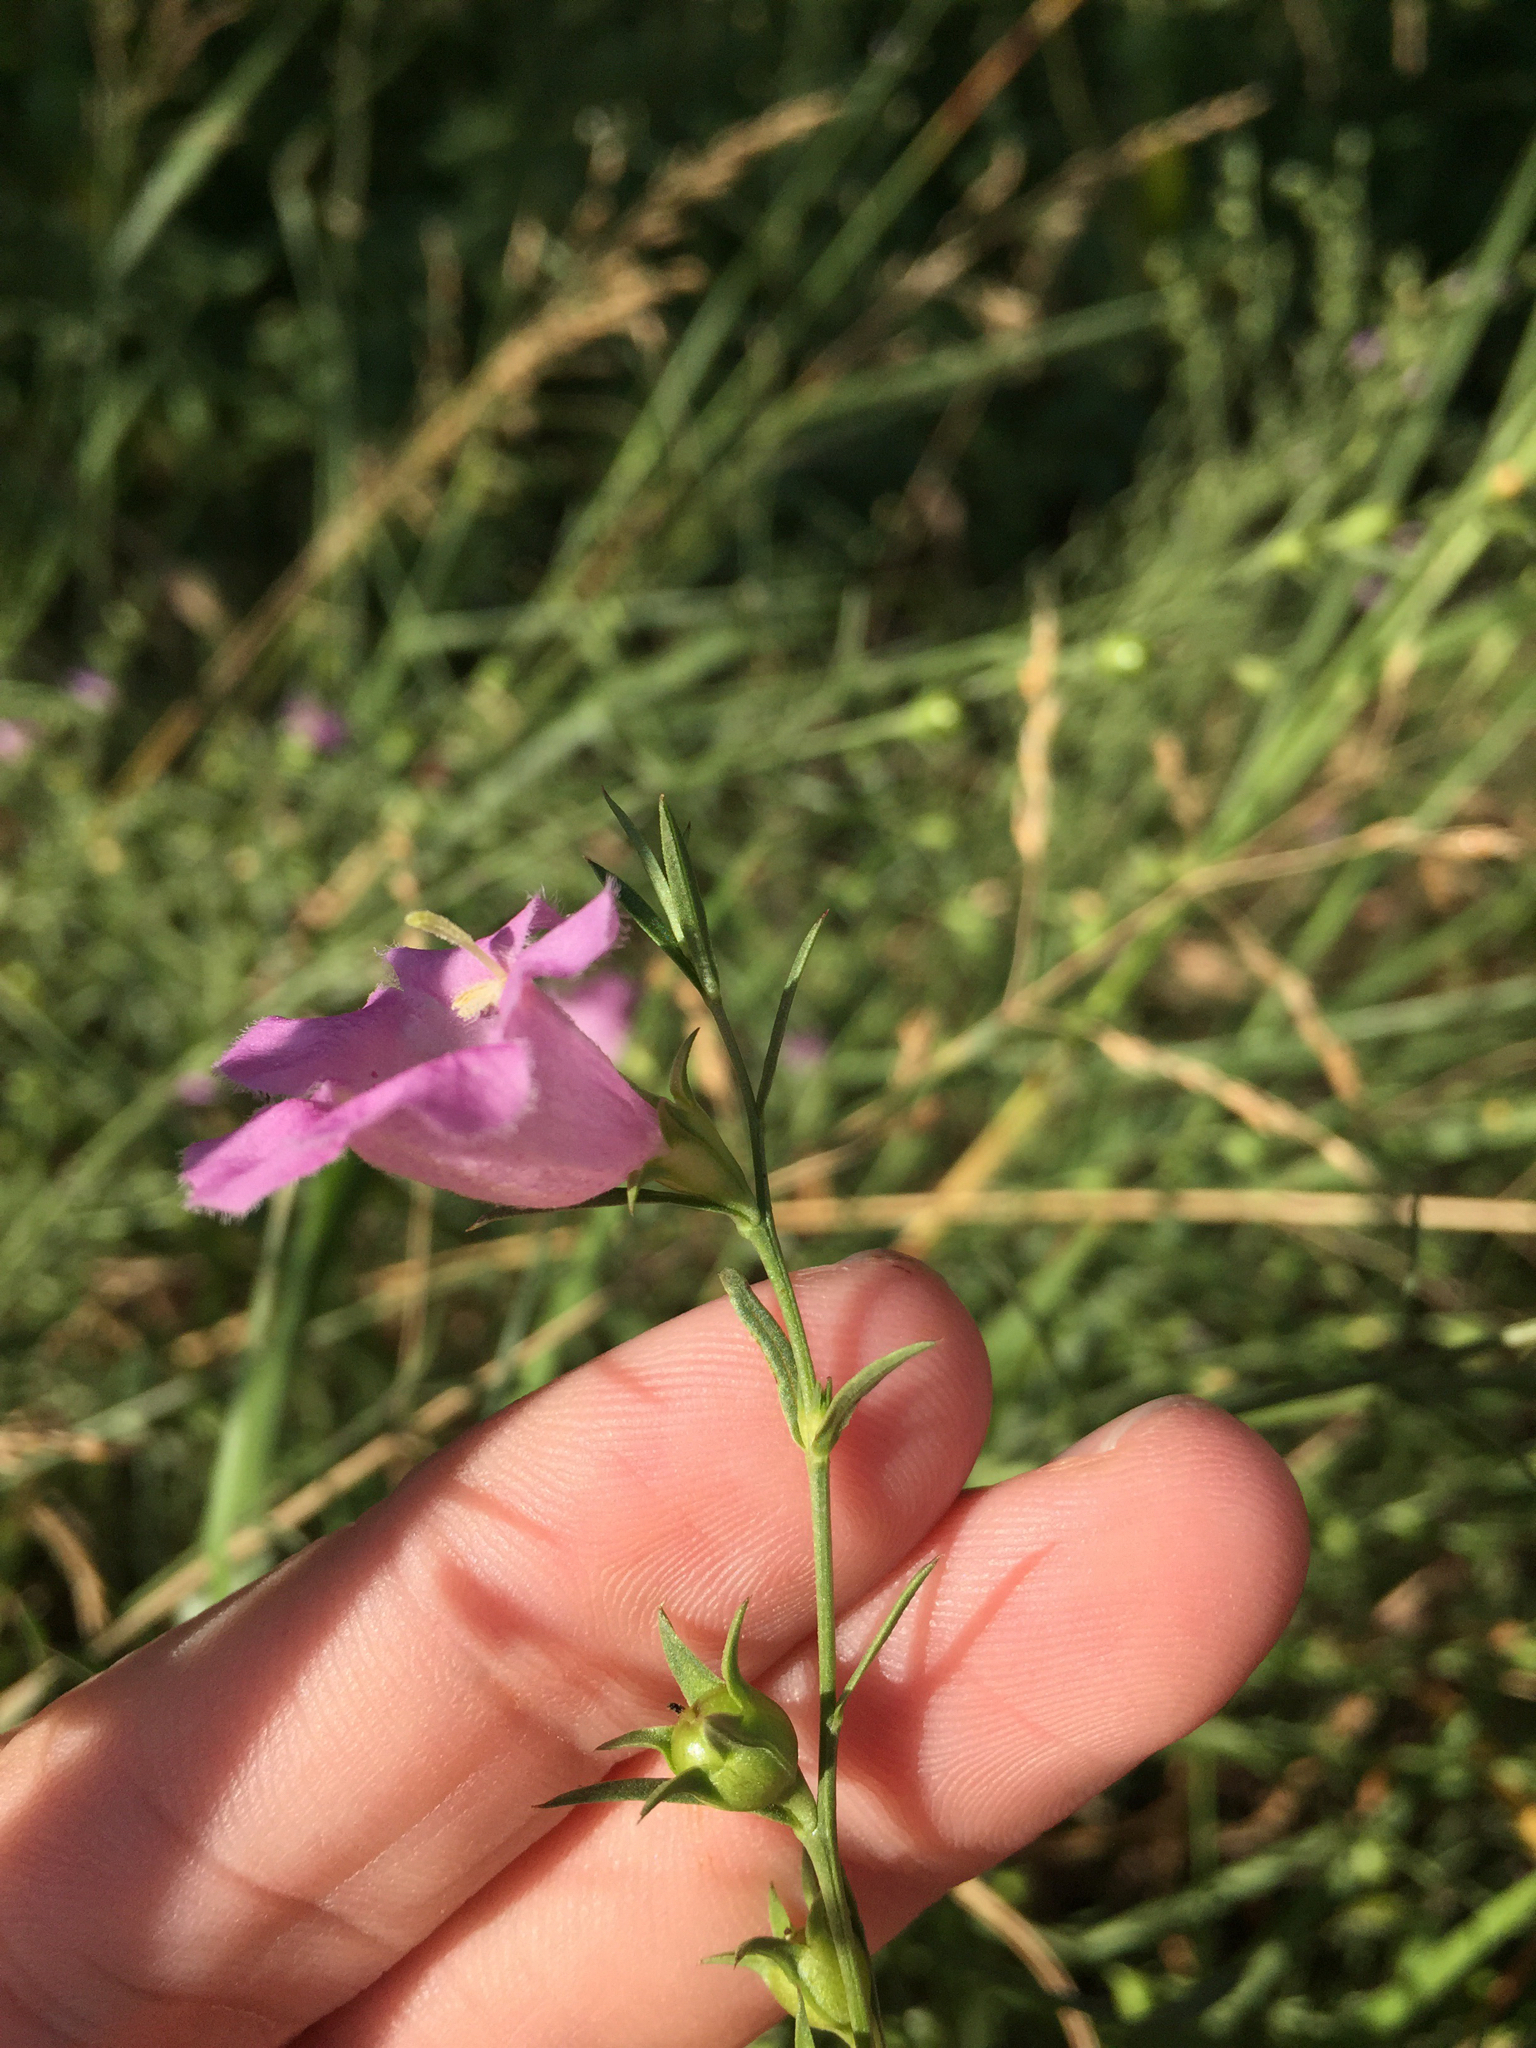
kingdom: Plantae
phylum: Tracheophyta
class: Magnoliopsida
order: Lamiales
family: Orobanchaceae
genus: Agalinis
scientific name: Agalinis heterophylla
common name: Prairie agalinis
